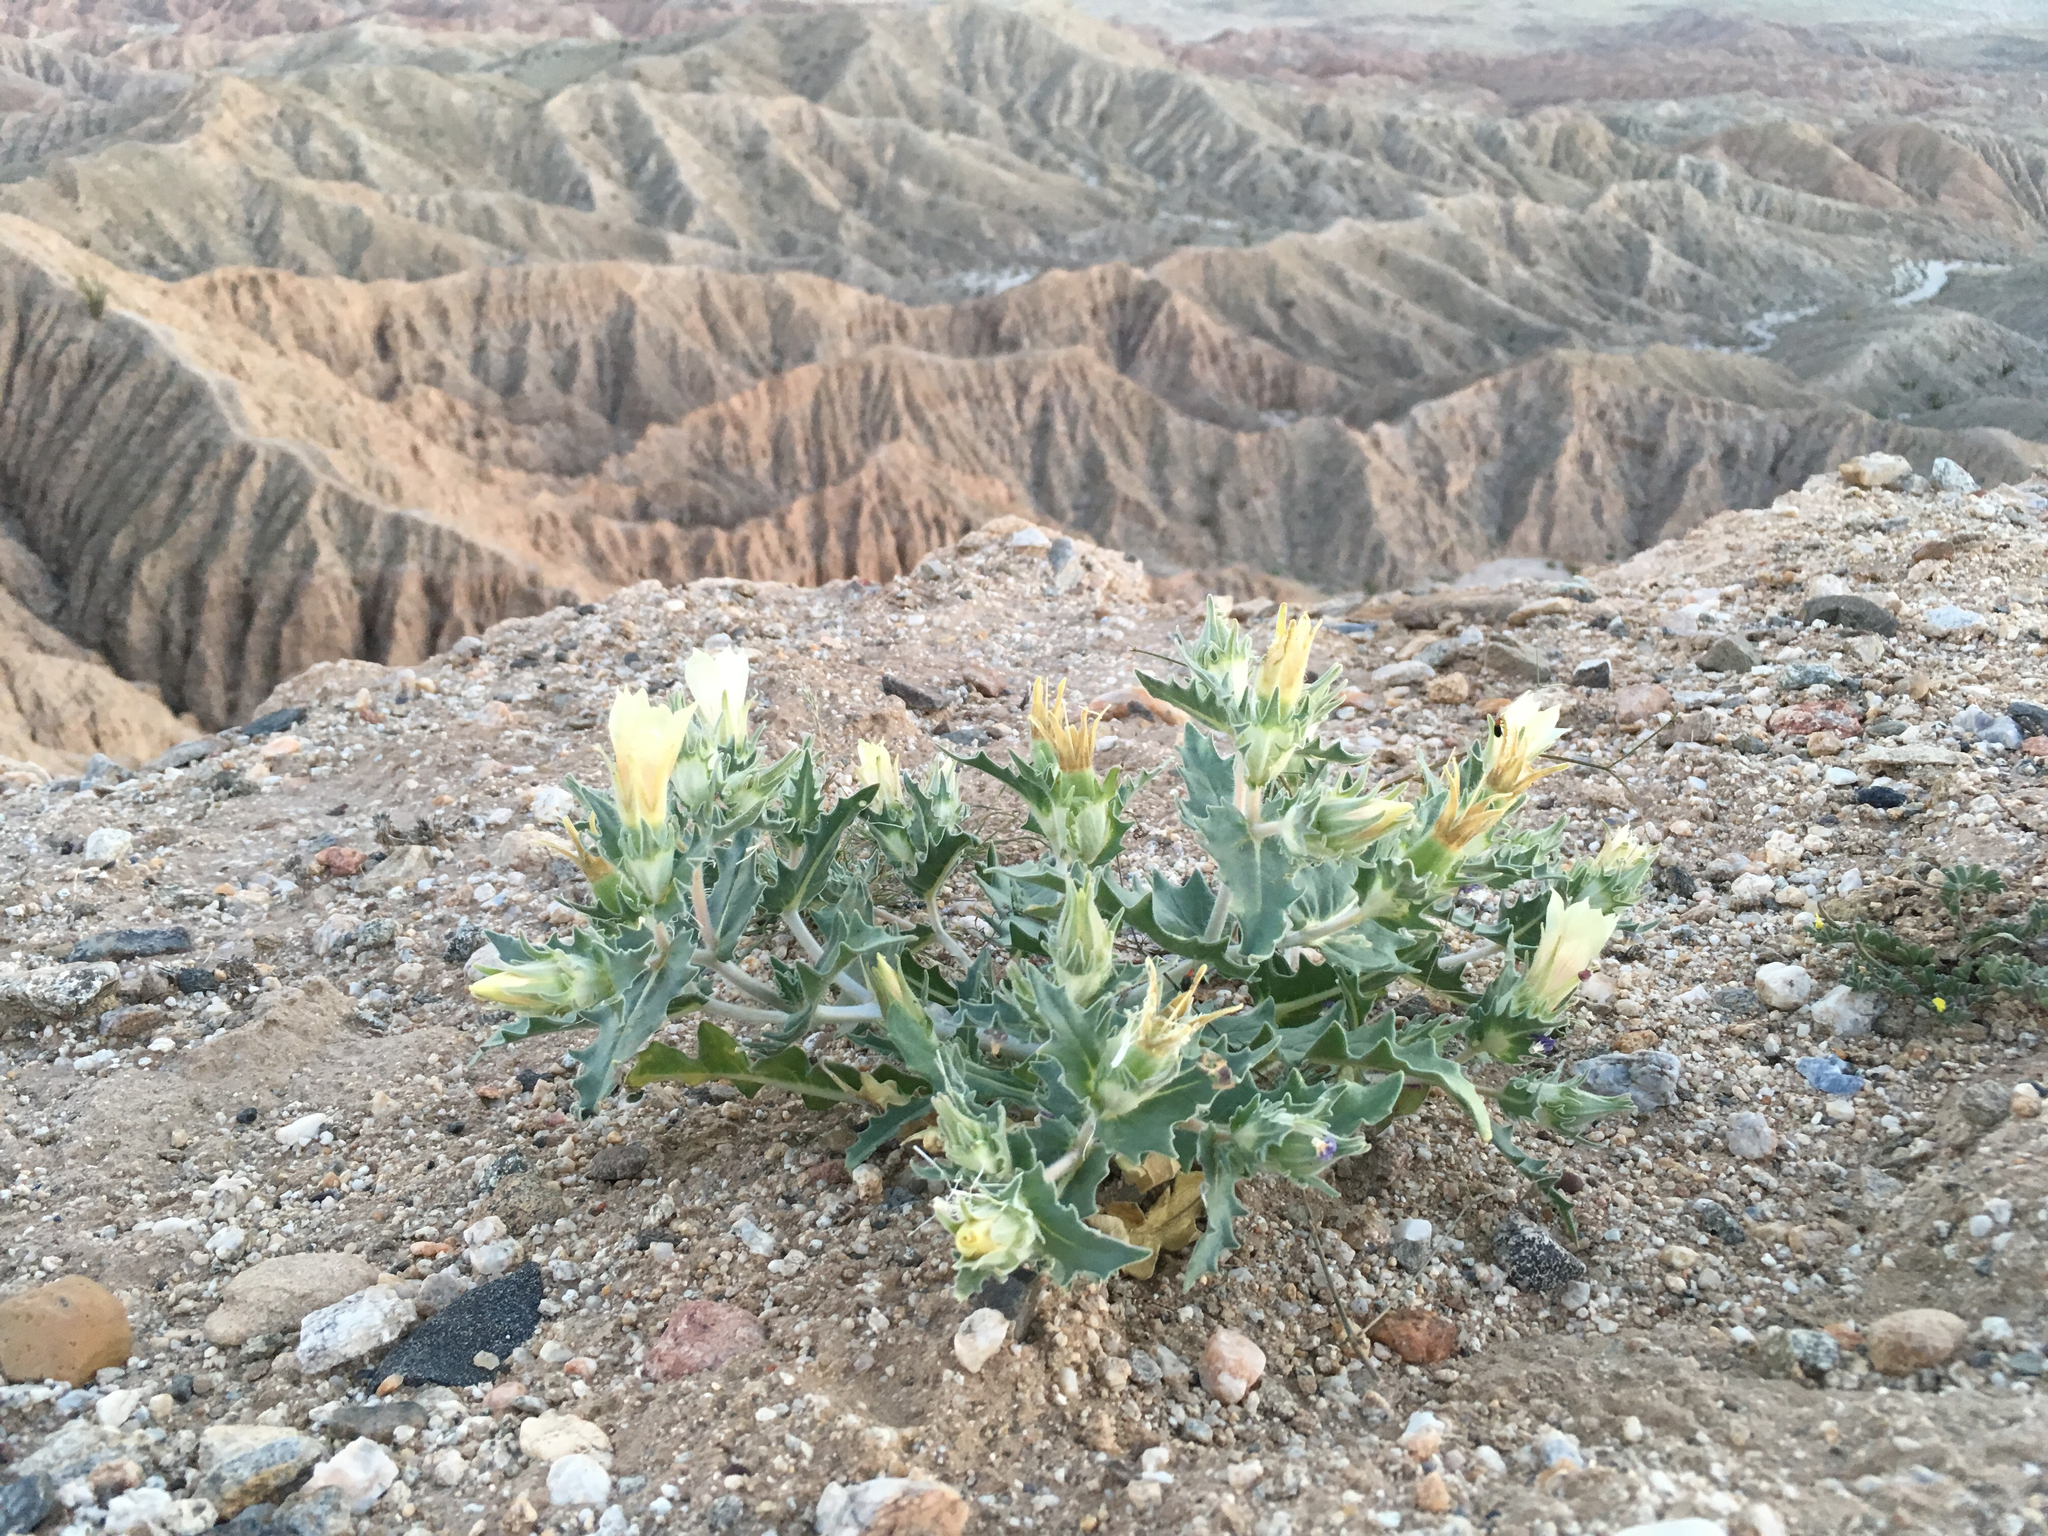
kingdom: Plantae
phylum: Tracheophyta
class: Magnoliopsida
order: Cornales
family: Loasaceae
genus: Mentzelia
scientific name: Mentzelia involucrata
